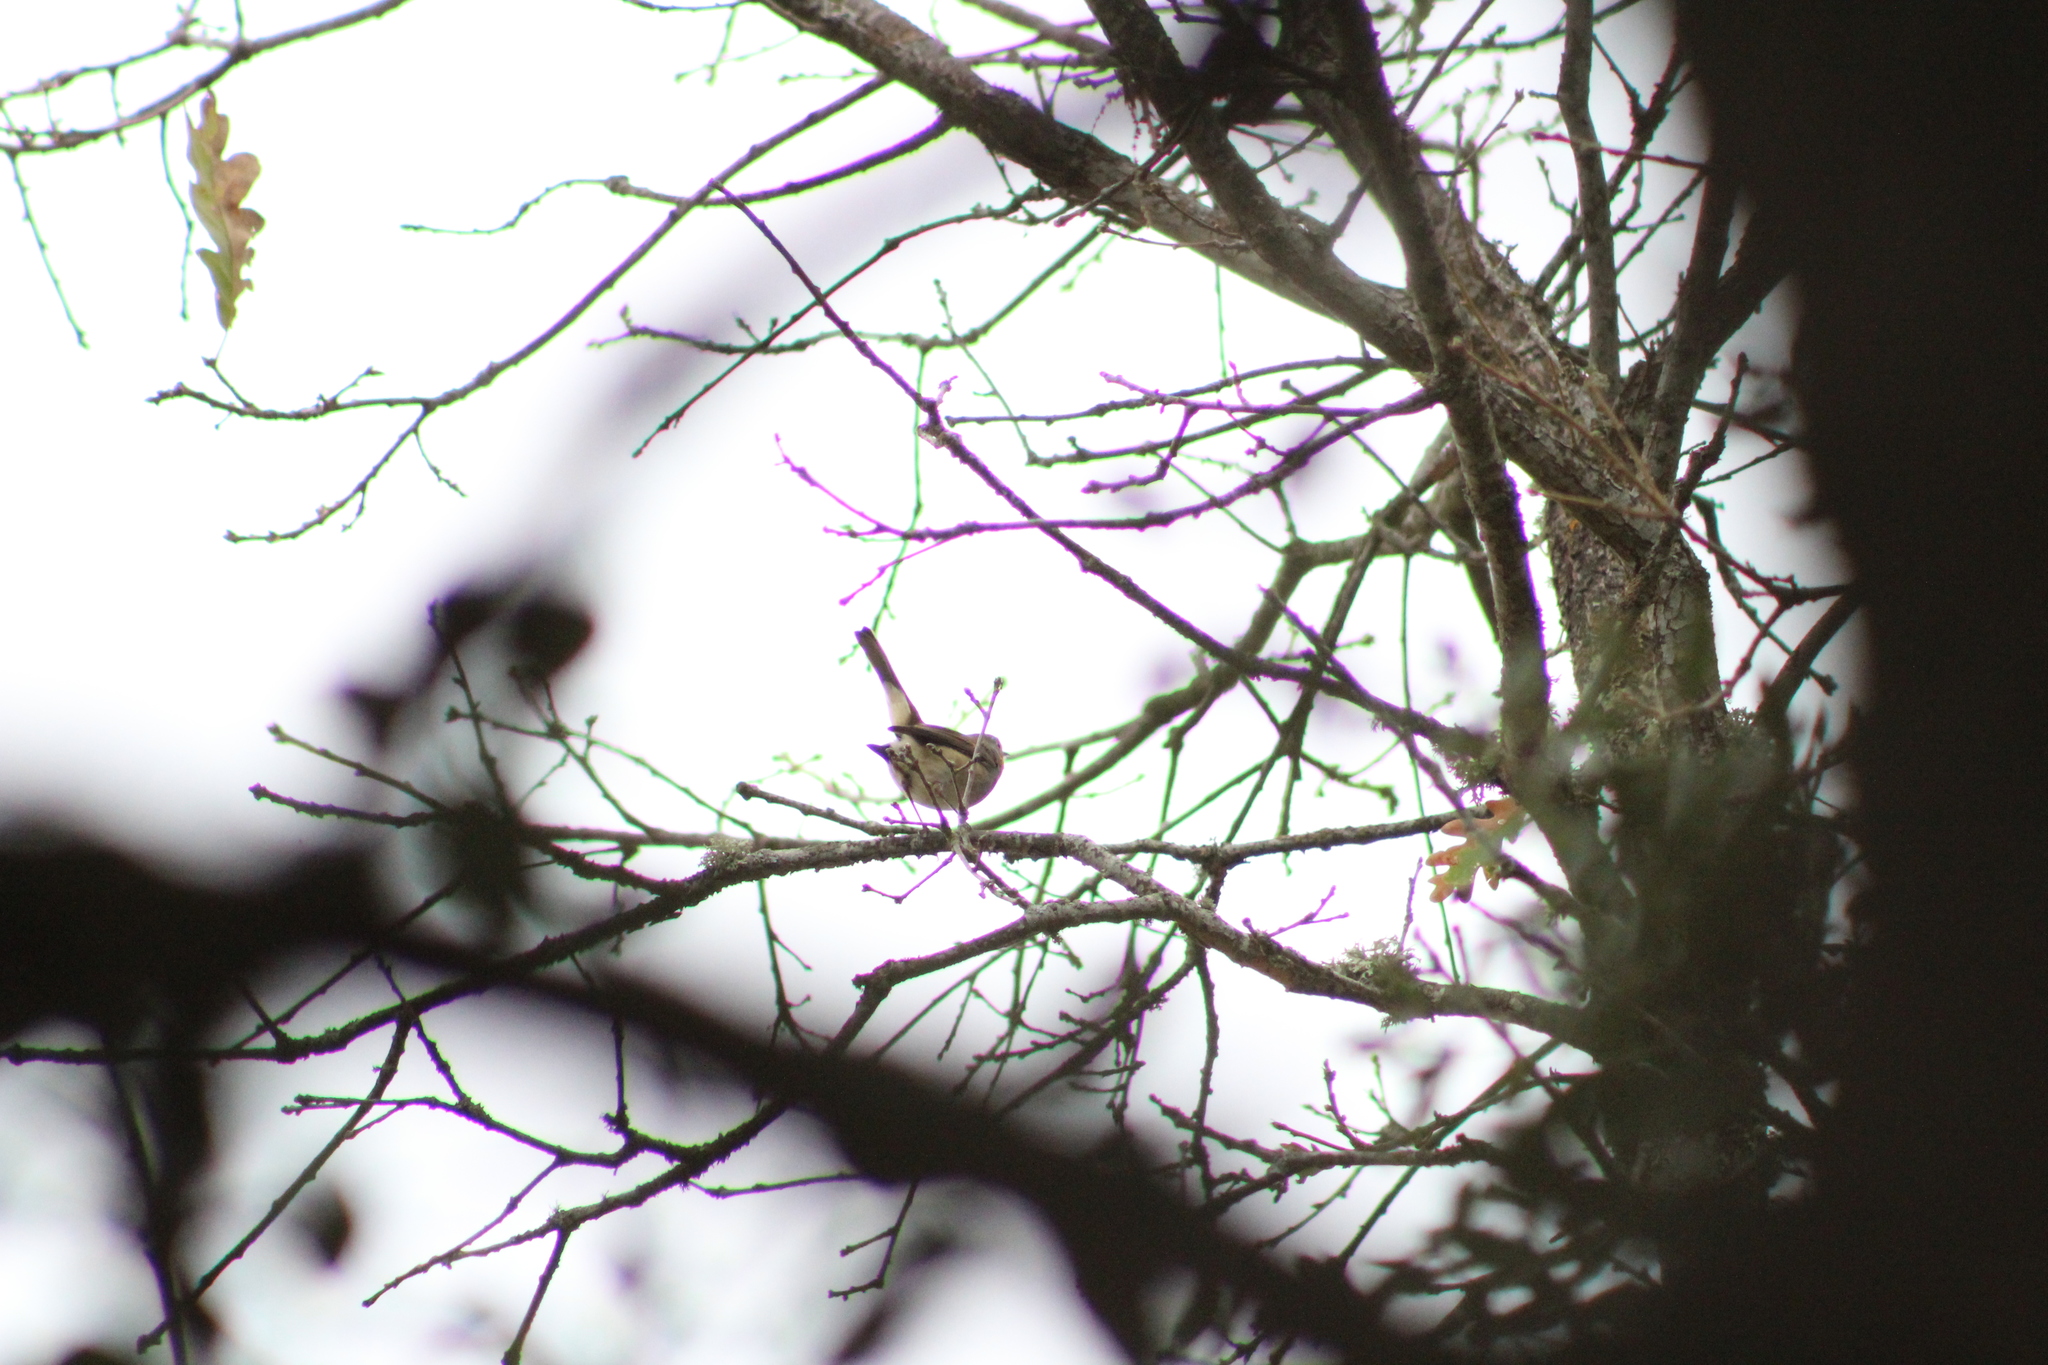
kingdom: Animalia
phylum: Chordata
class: Aves
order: Passeriformes
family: Muscicapidae
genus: Erithacus
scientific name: Erithacus rubecula
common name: European robin
